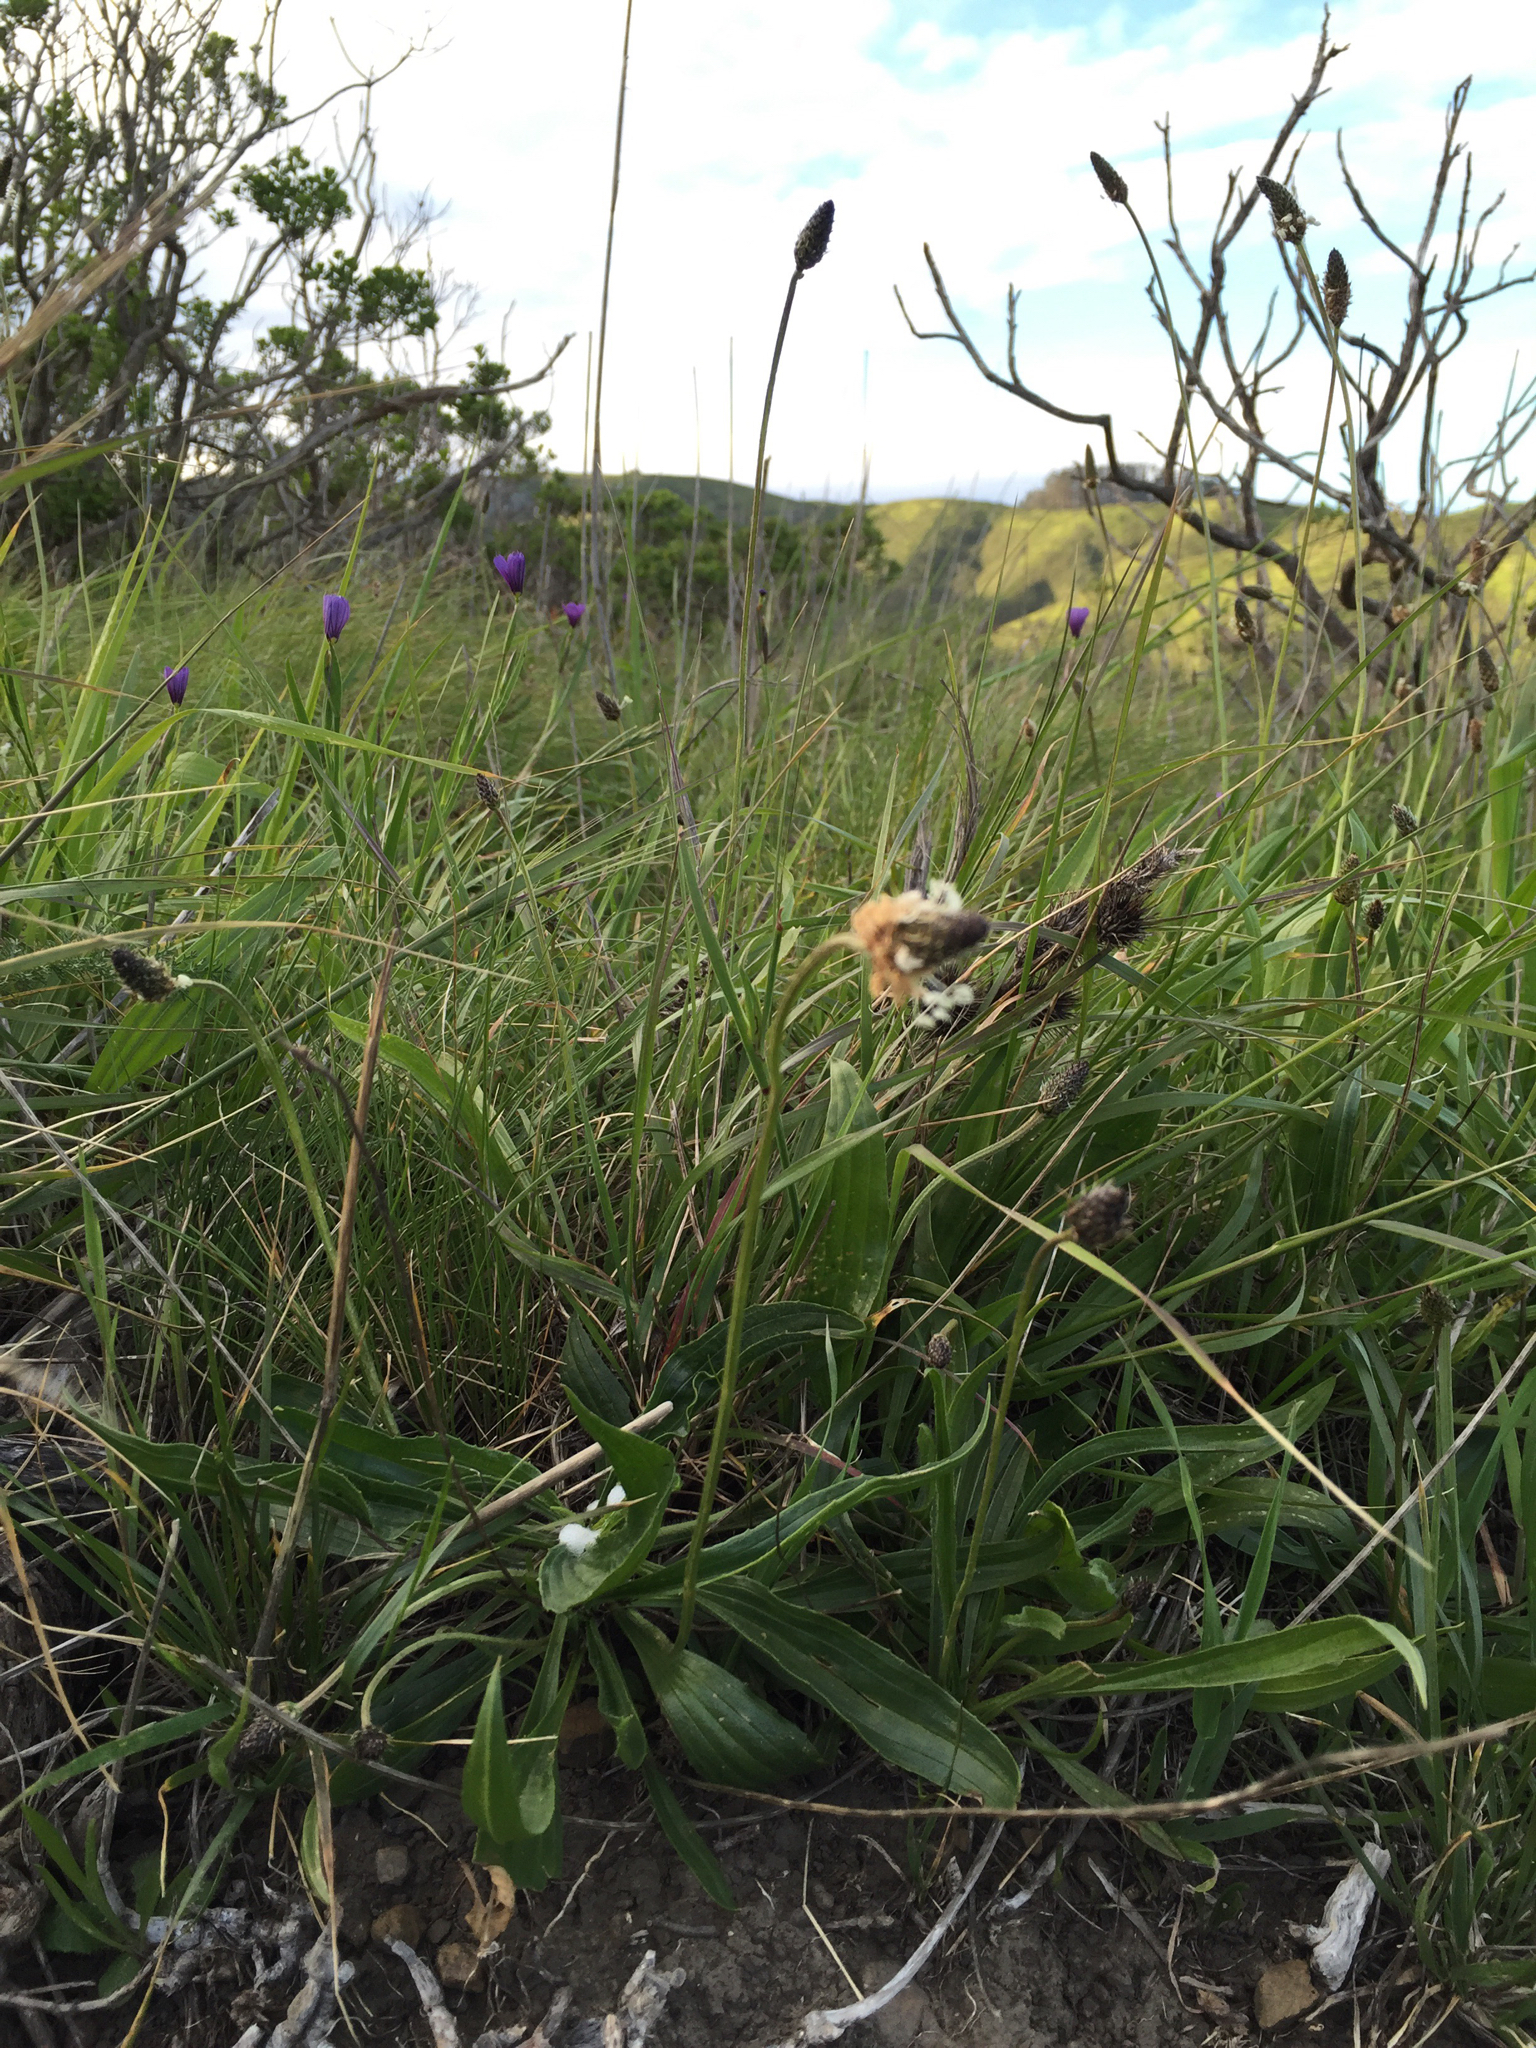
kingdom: Plantae
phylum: Tracheophyta
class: Magnoliopsida
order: Lamiales
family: Plantaginaceae
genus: Plantago
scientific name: Plantago lanceolata
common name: Ribwort plantain
